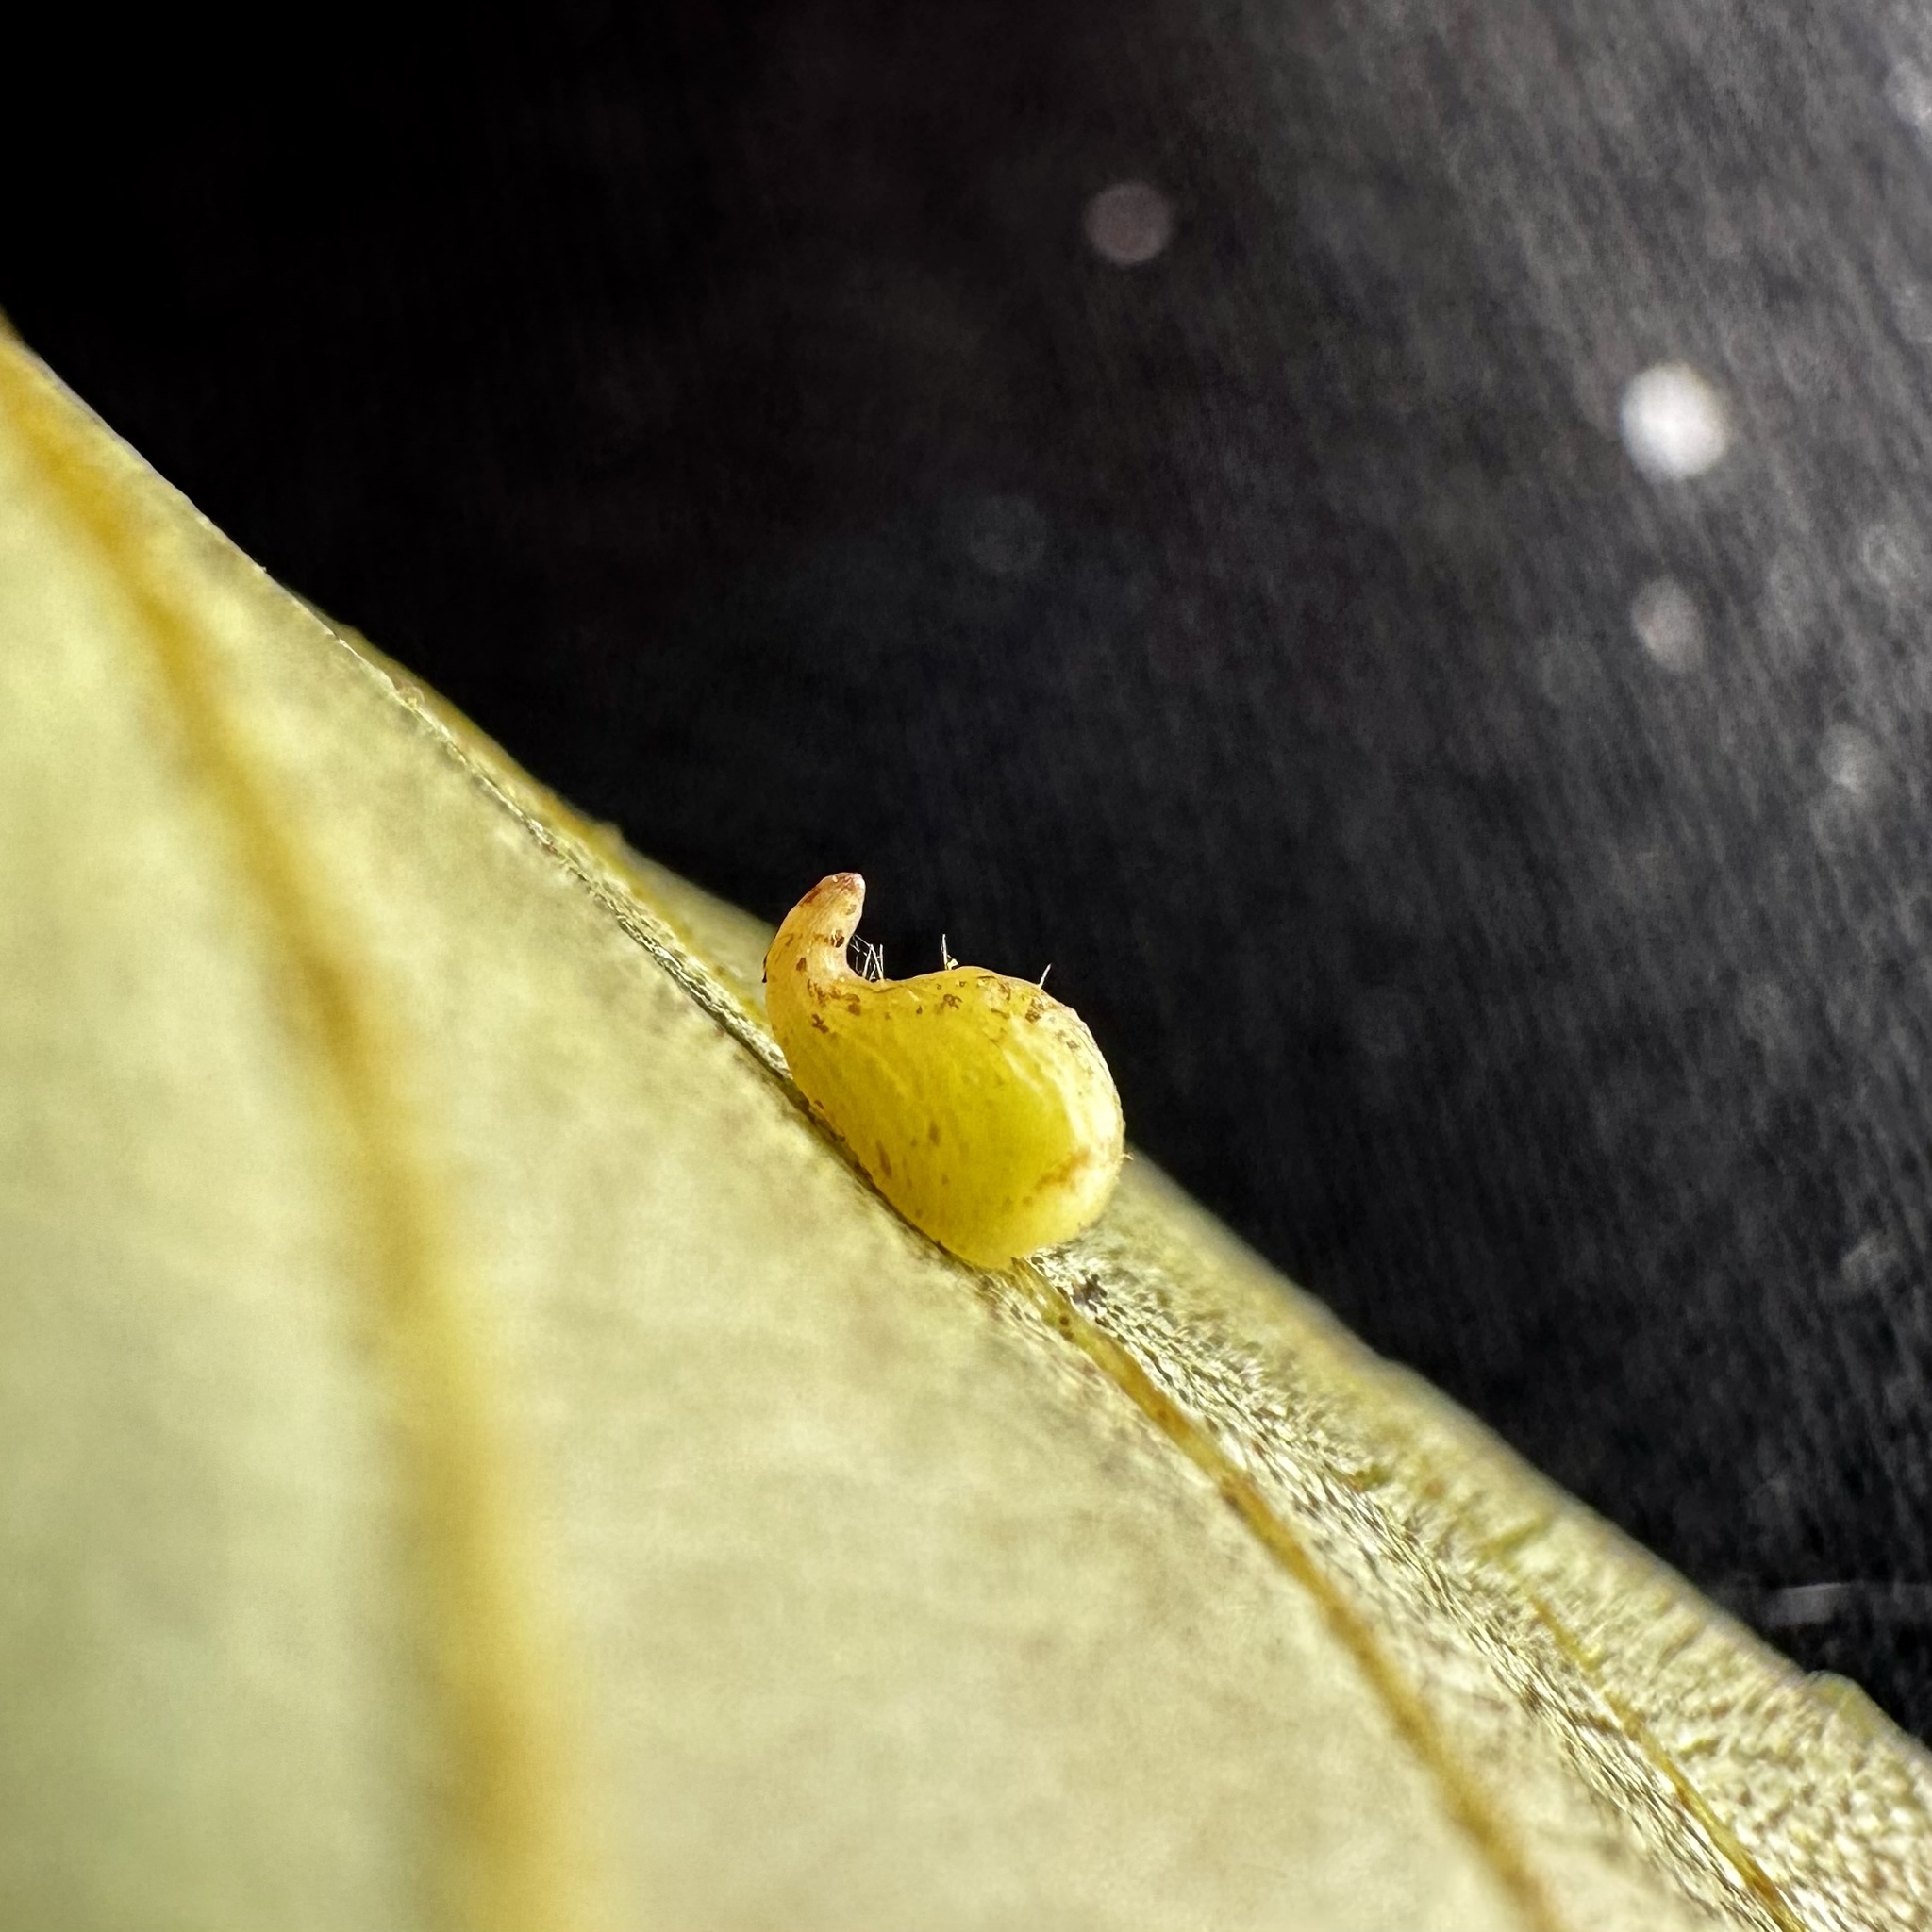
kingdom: Animalia
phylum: Arthropoda
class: Insecta
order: Diptera
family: Cecidomyiidae
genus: Caryomyia
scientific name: Caryomyia eumaris
